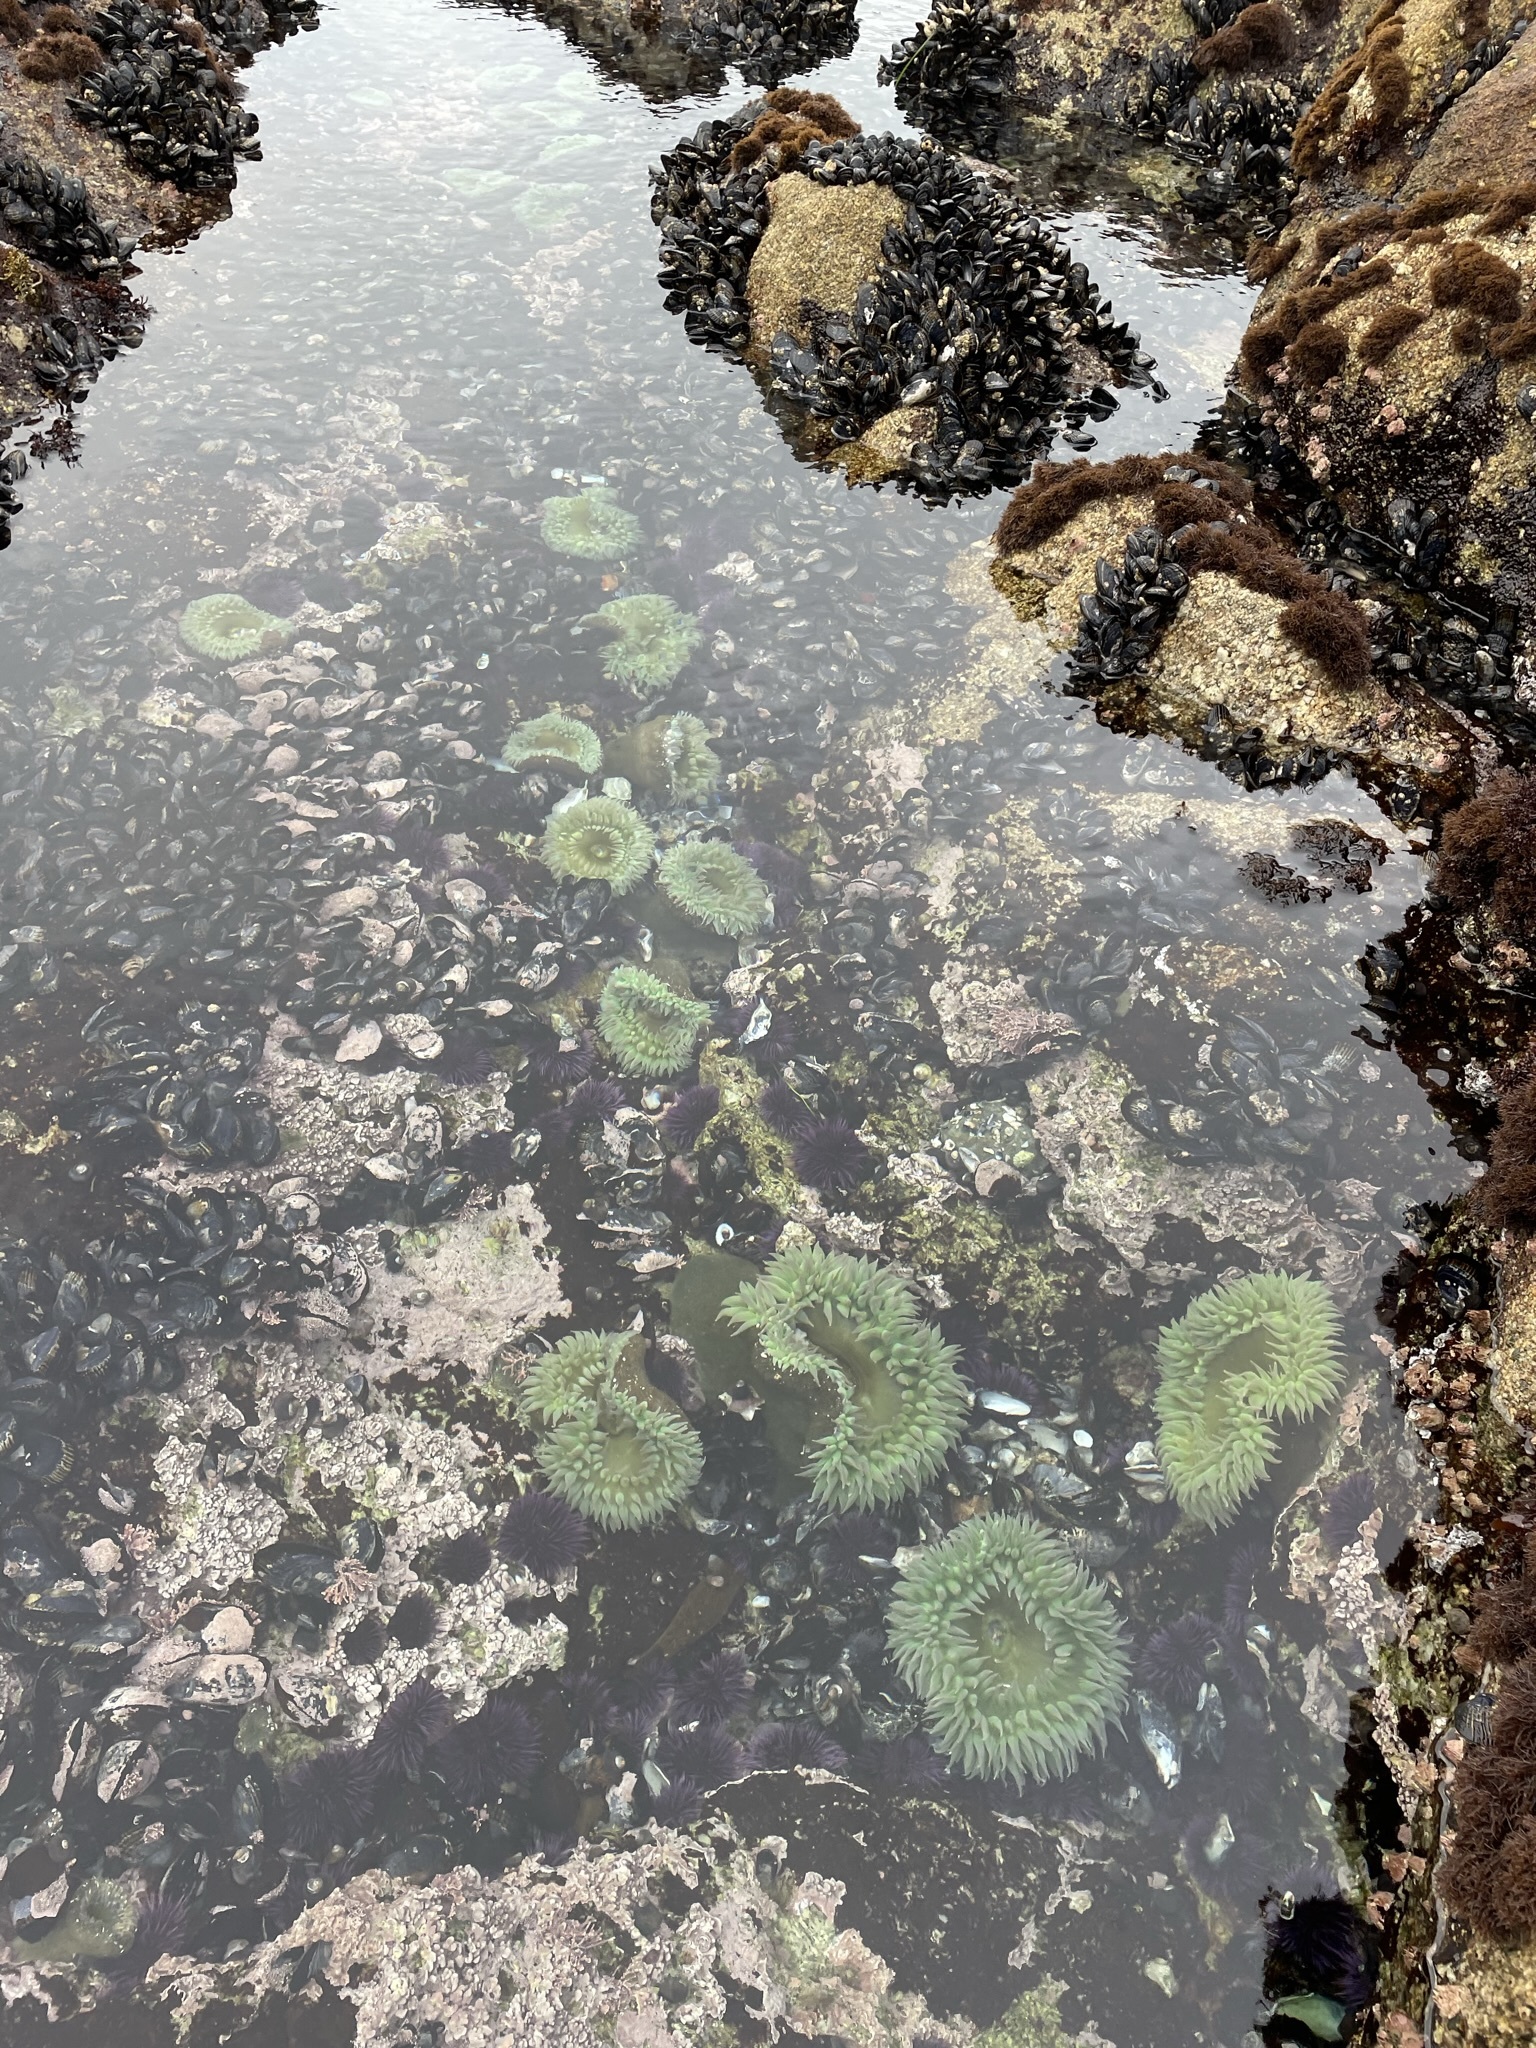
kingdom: Animalia
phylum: Cnidaria
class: Anthozoa
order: Actiniaria
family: Actiniidae
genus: Anthopleura
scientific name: Anthopleura xanthogrammica
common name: Giant green anemone
